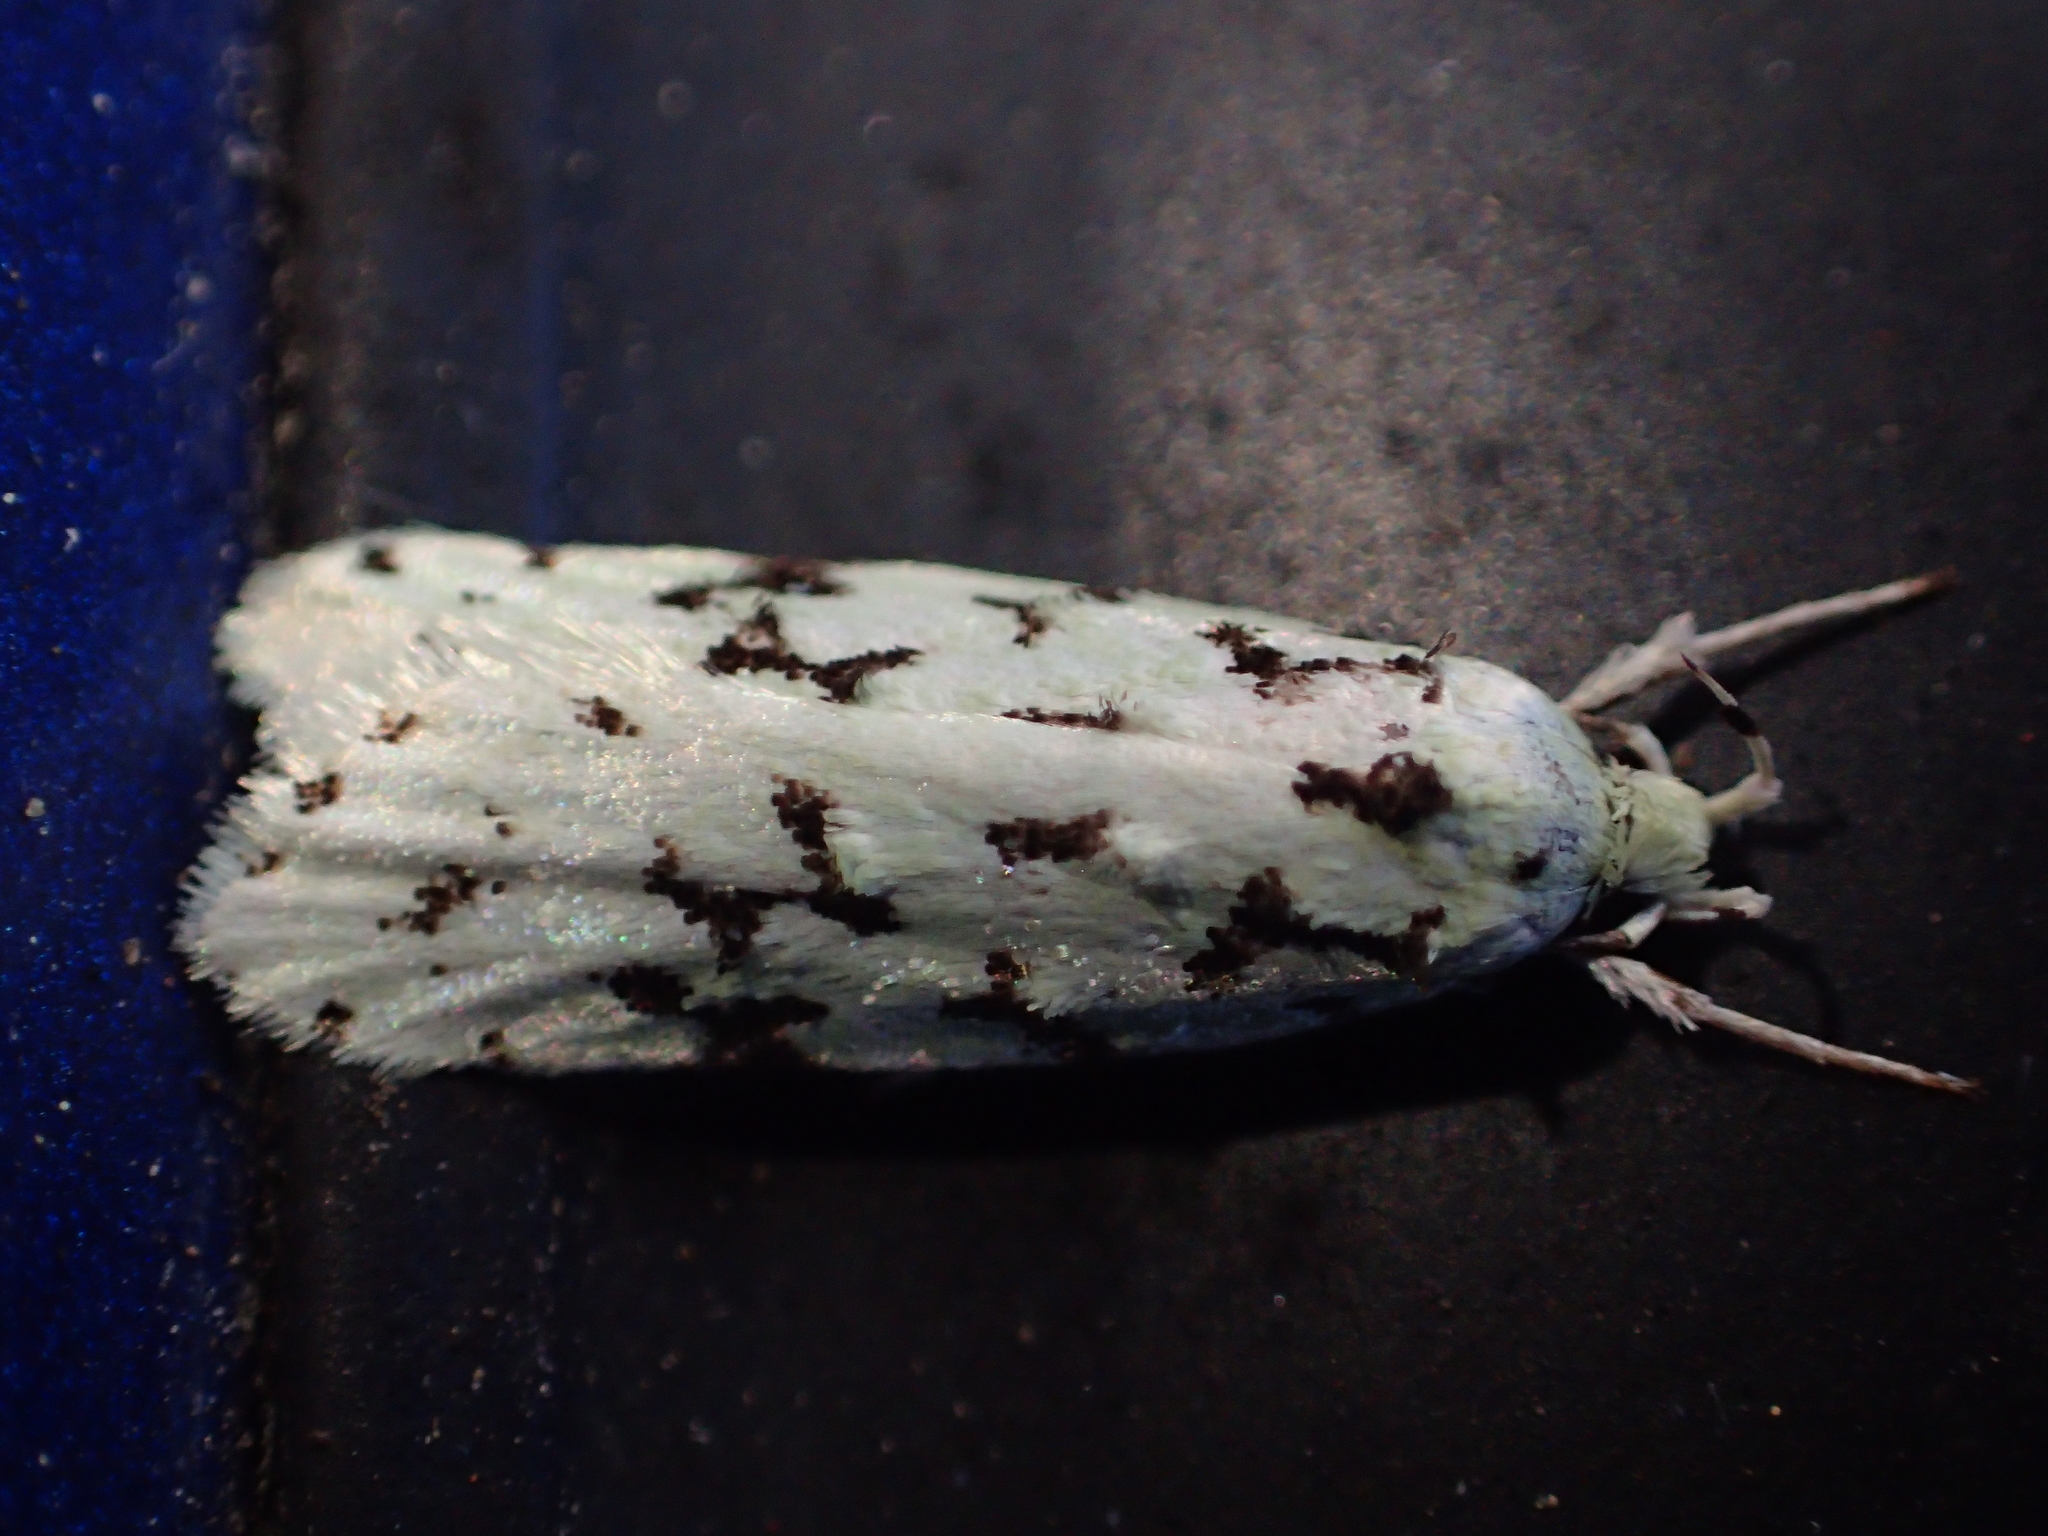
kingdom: Animalia
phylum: Arthropoda
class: Insecta
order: Lepidoptera
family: Oecophoridae
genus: Izatha
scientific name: Izatha huttoni
